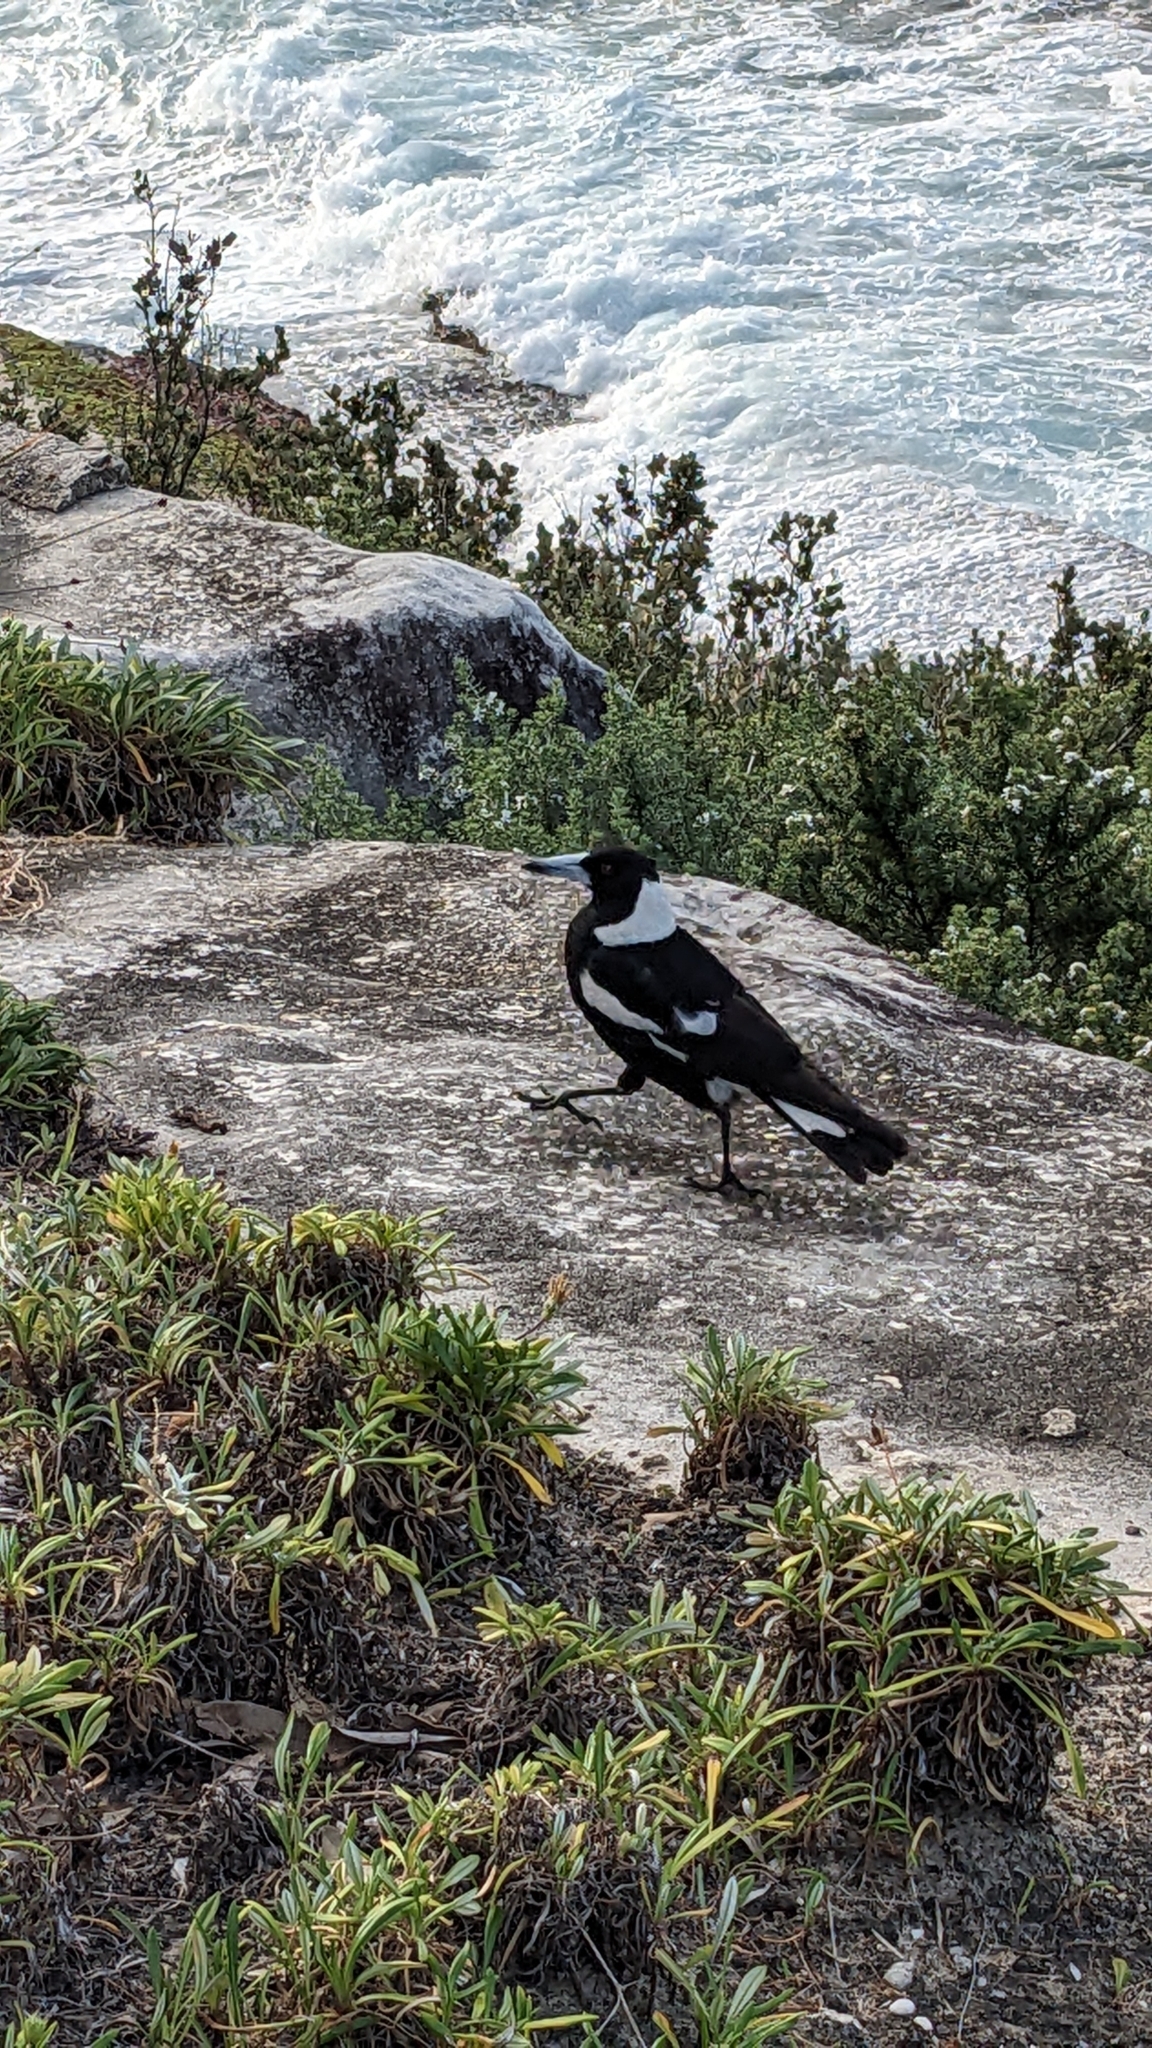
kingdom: Animalia
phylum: Chordata
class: Aves
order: Passeriformes
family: Cracticidae
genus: Gymnorhina
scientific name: Gymnorhina tibicen
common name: Australian magpie
